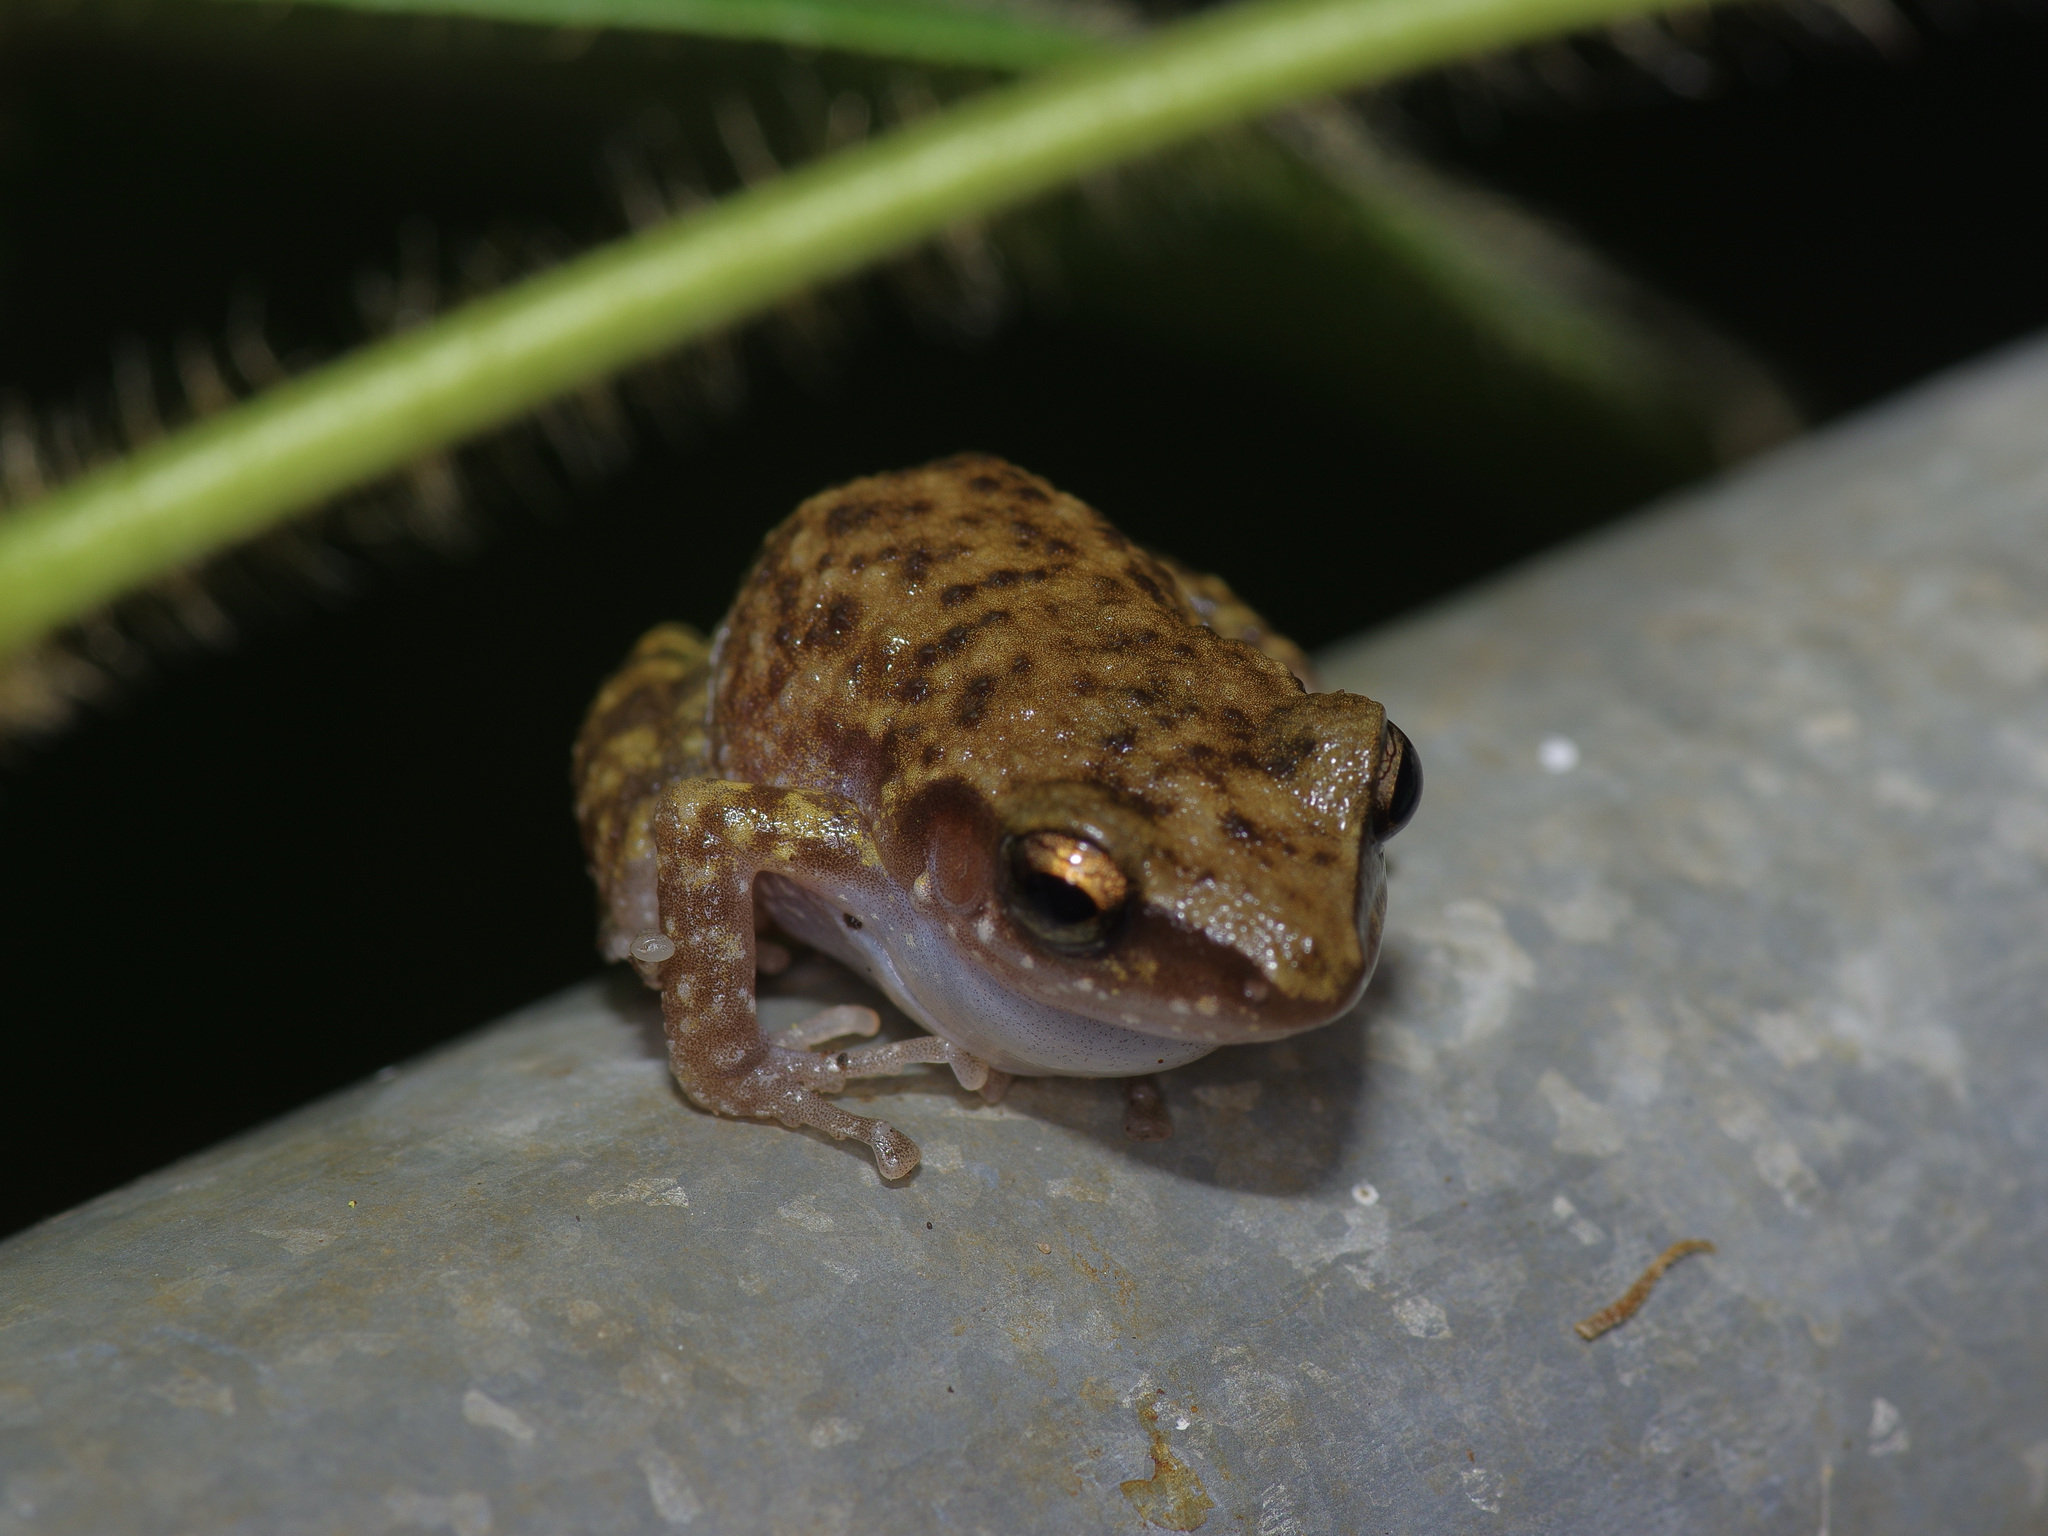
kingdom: Animalia
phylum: Chordata
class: Amphibia
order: Anura
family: Eleutherodactylidae
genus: Eleutherodactylus
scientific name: Eleutherodactylus marnockii
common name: Cliff chirping frog
